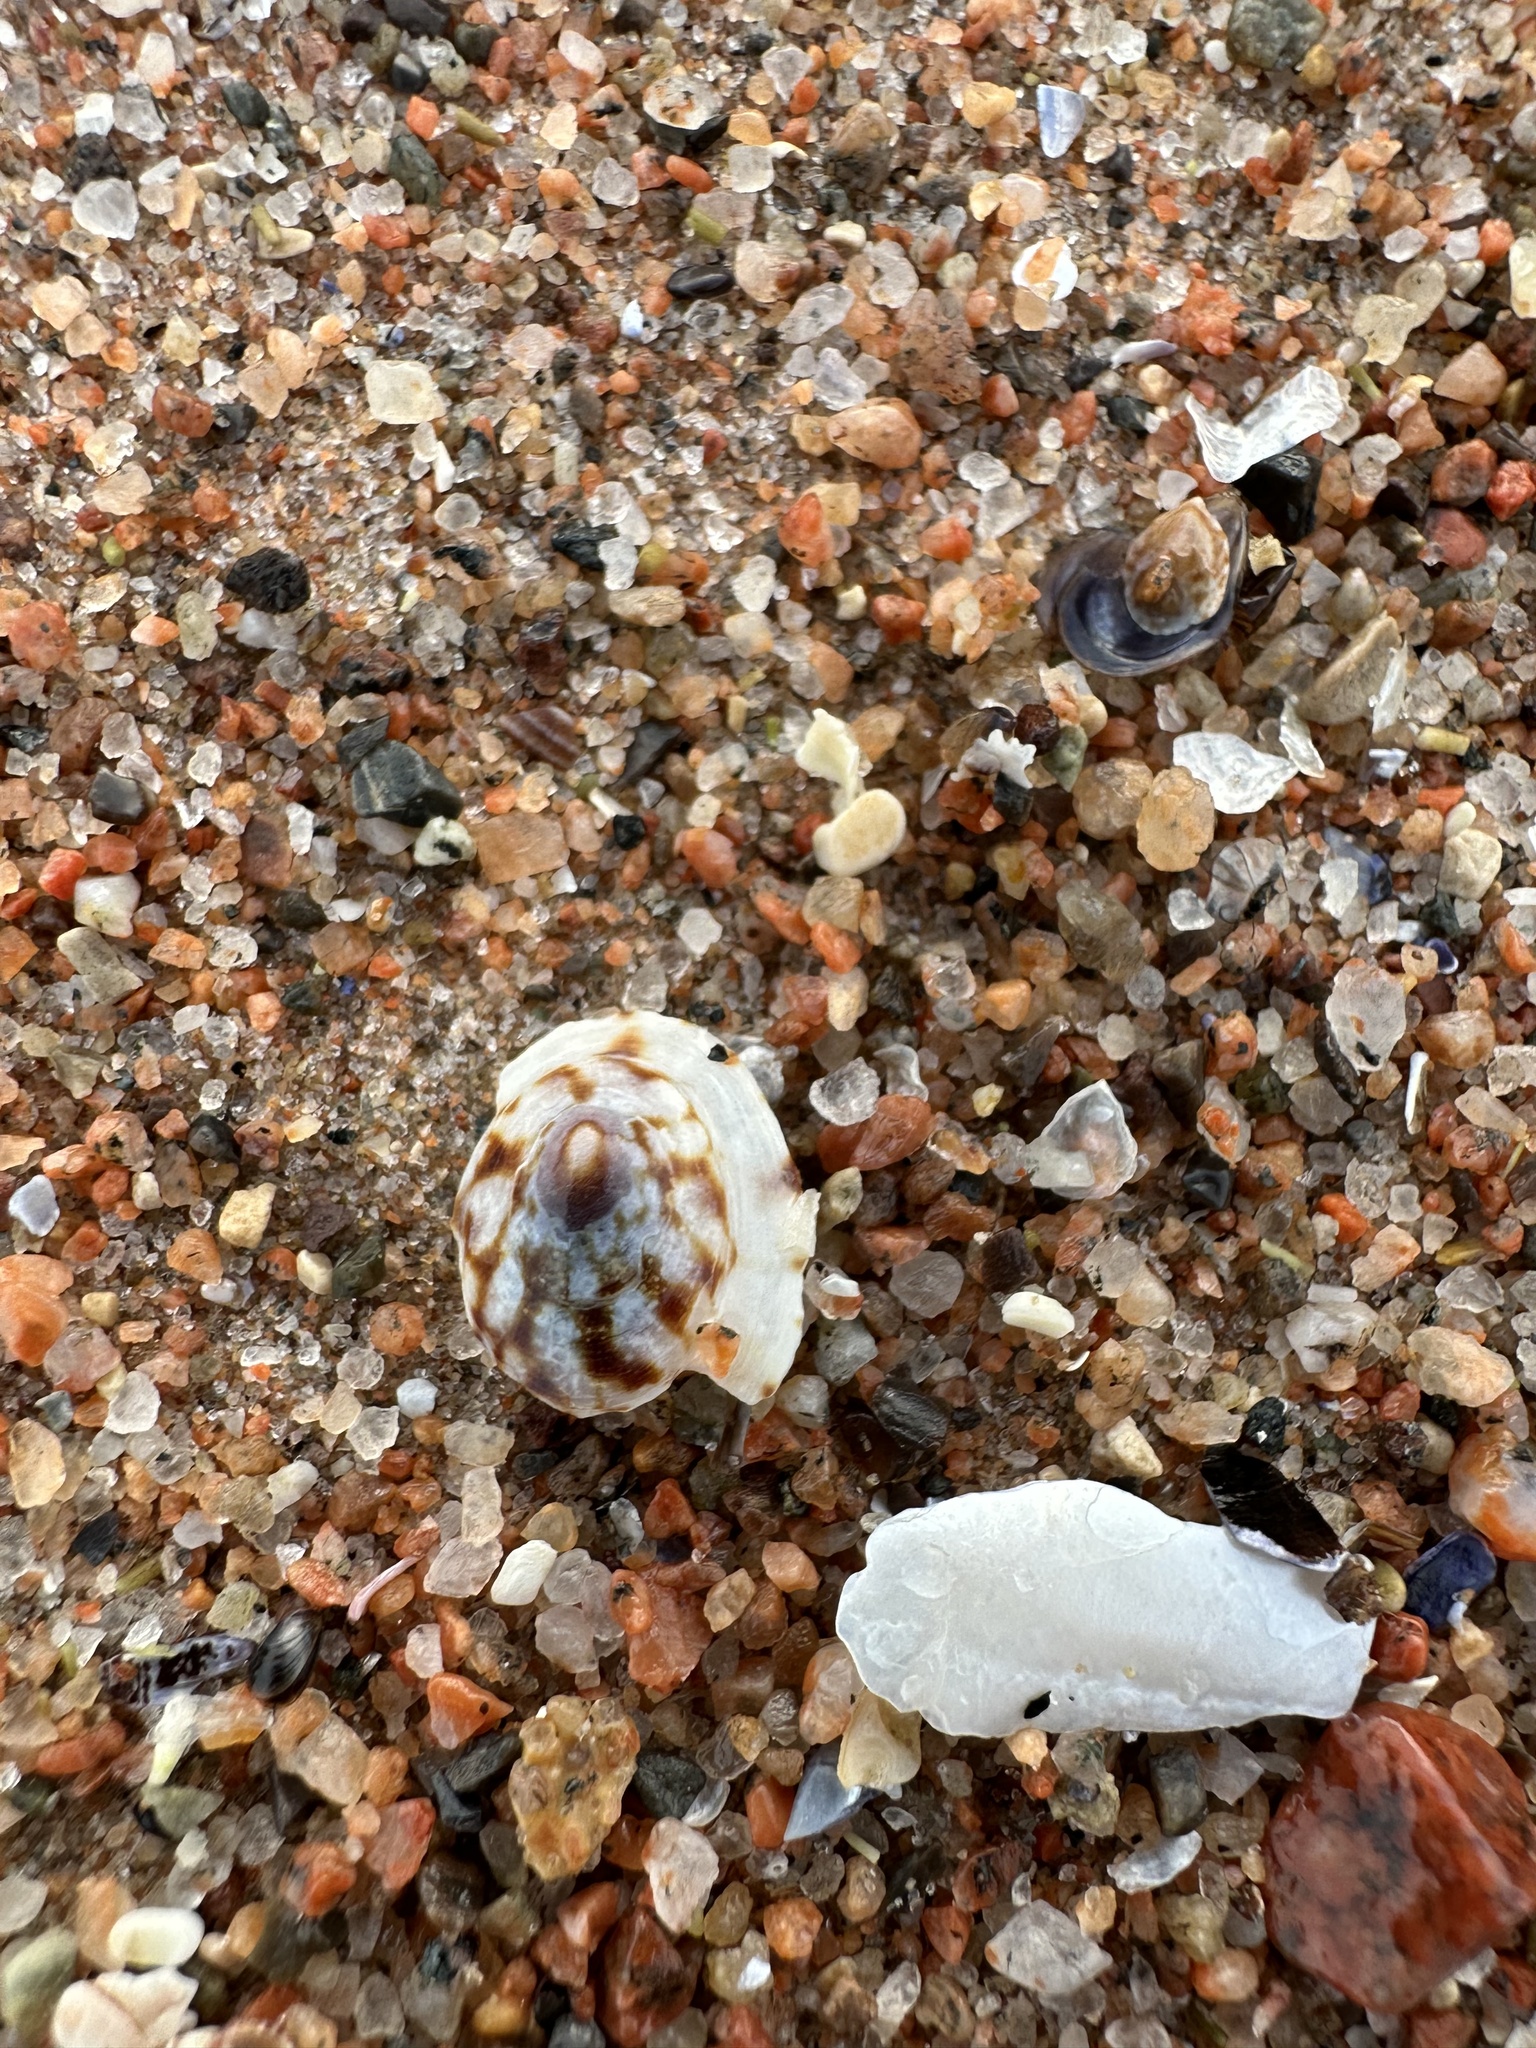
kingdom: Animalia
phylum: Mollusca
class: Gastropoda
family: Lottiidae
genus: Testudinalia
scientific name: Testudinalia testudinalis
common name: Common tortoiseshell limpet
